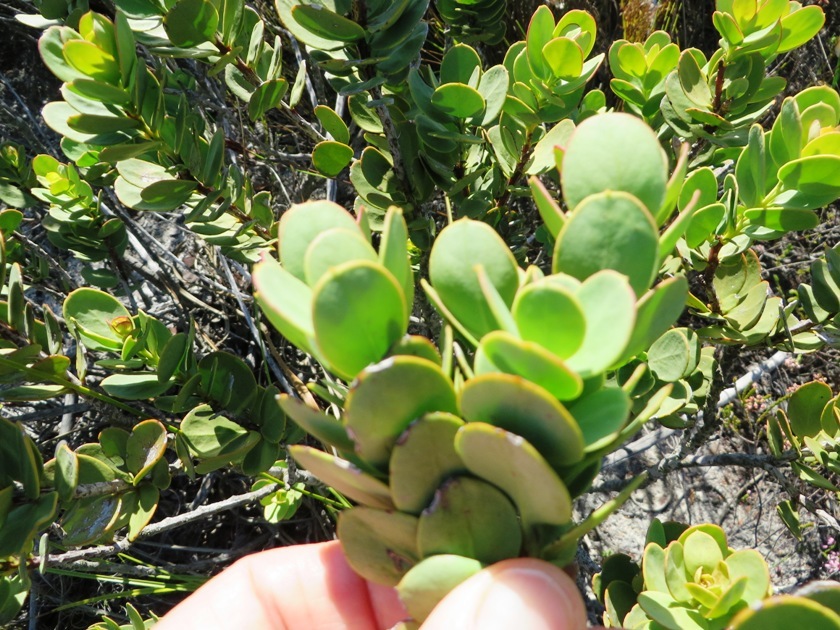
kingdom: Plantae
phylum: Tracheophyta
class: Magnoliopsida
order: Santalales
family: Santalaceae
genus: Osyris
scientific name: Osyris speciosa
